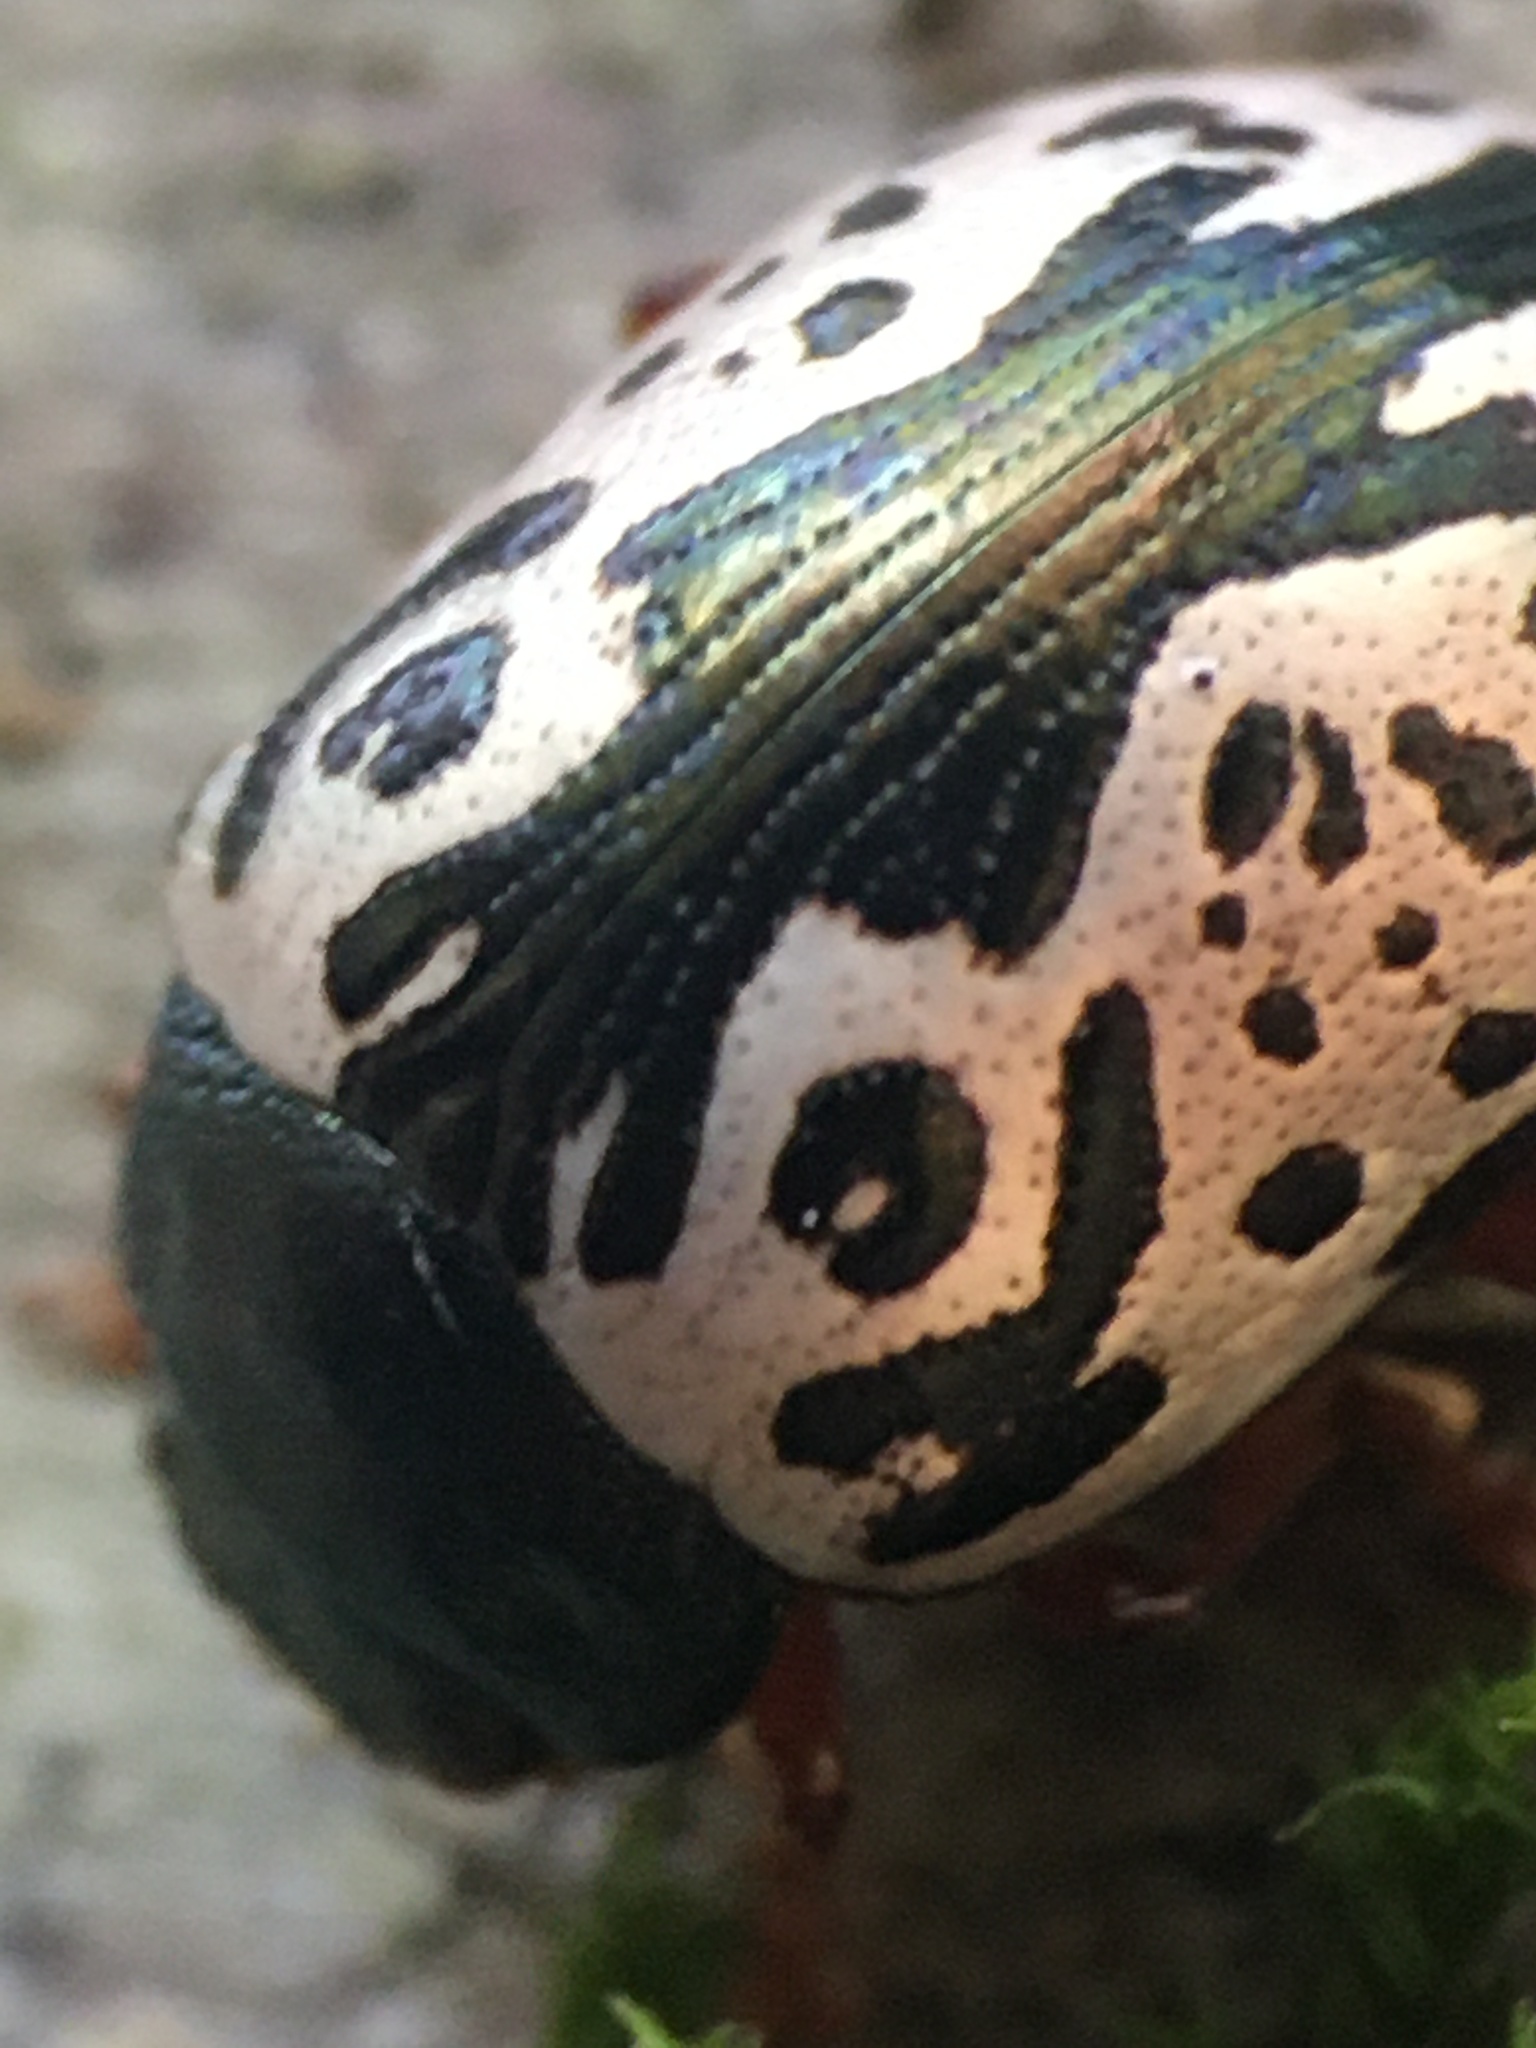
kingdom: Animalia
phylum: Arthropoda
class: Insecta
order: Coleoptera
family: Chrysomelidae
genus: Calligrapha
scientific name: Calligrapha confluens
